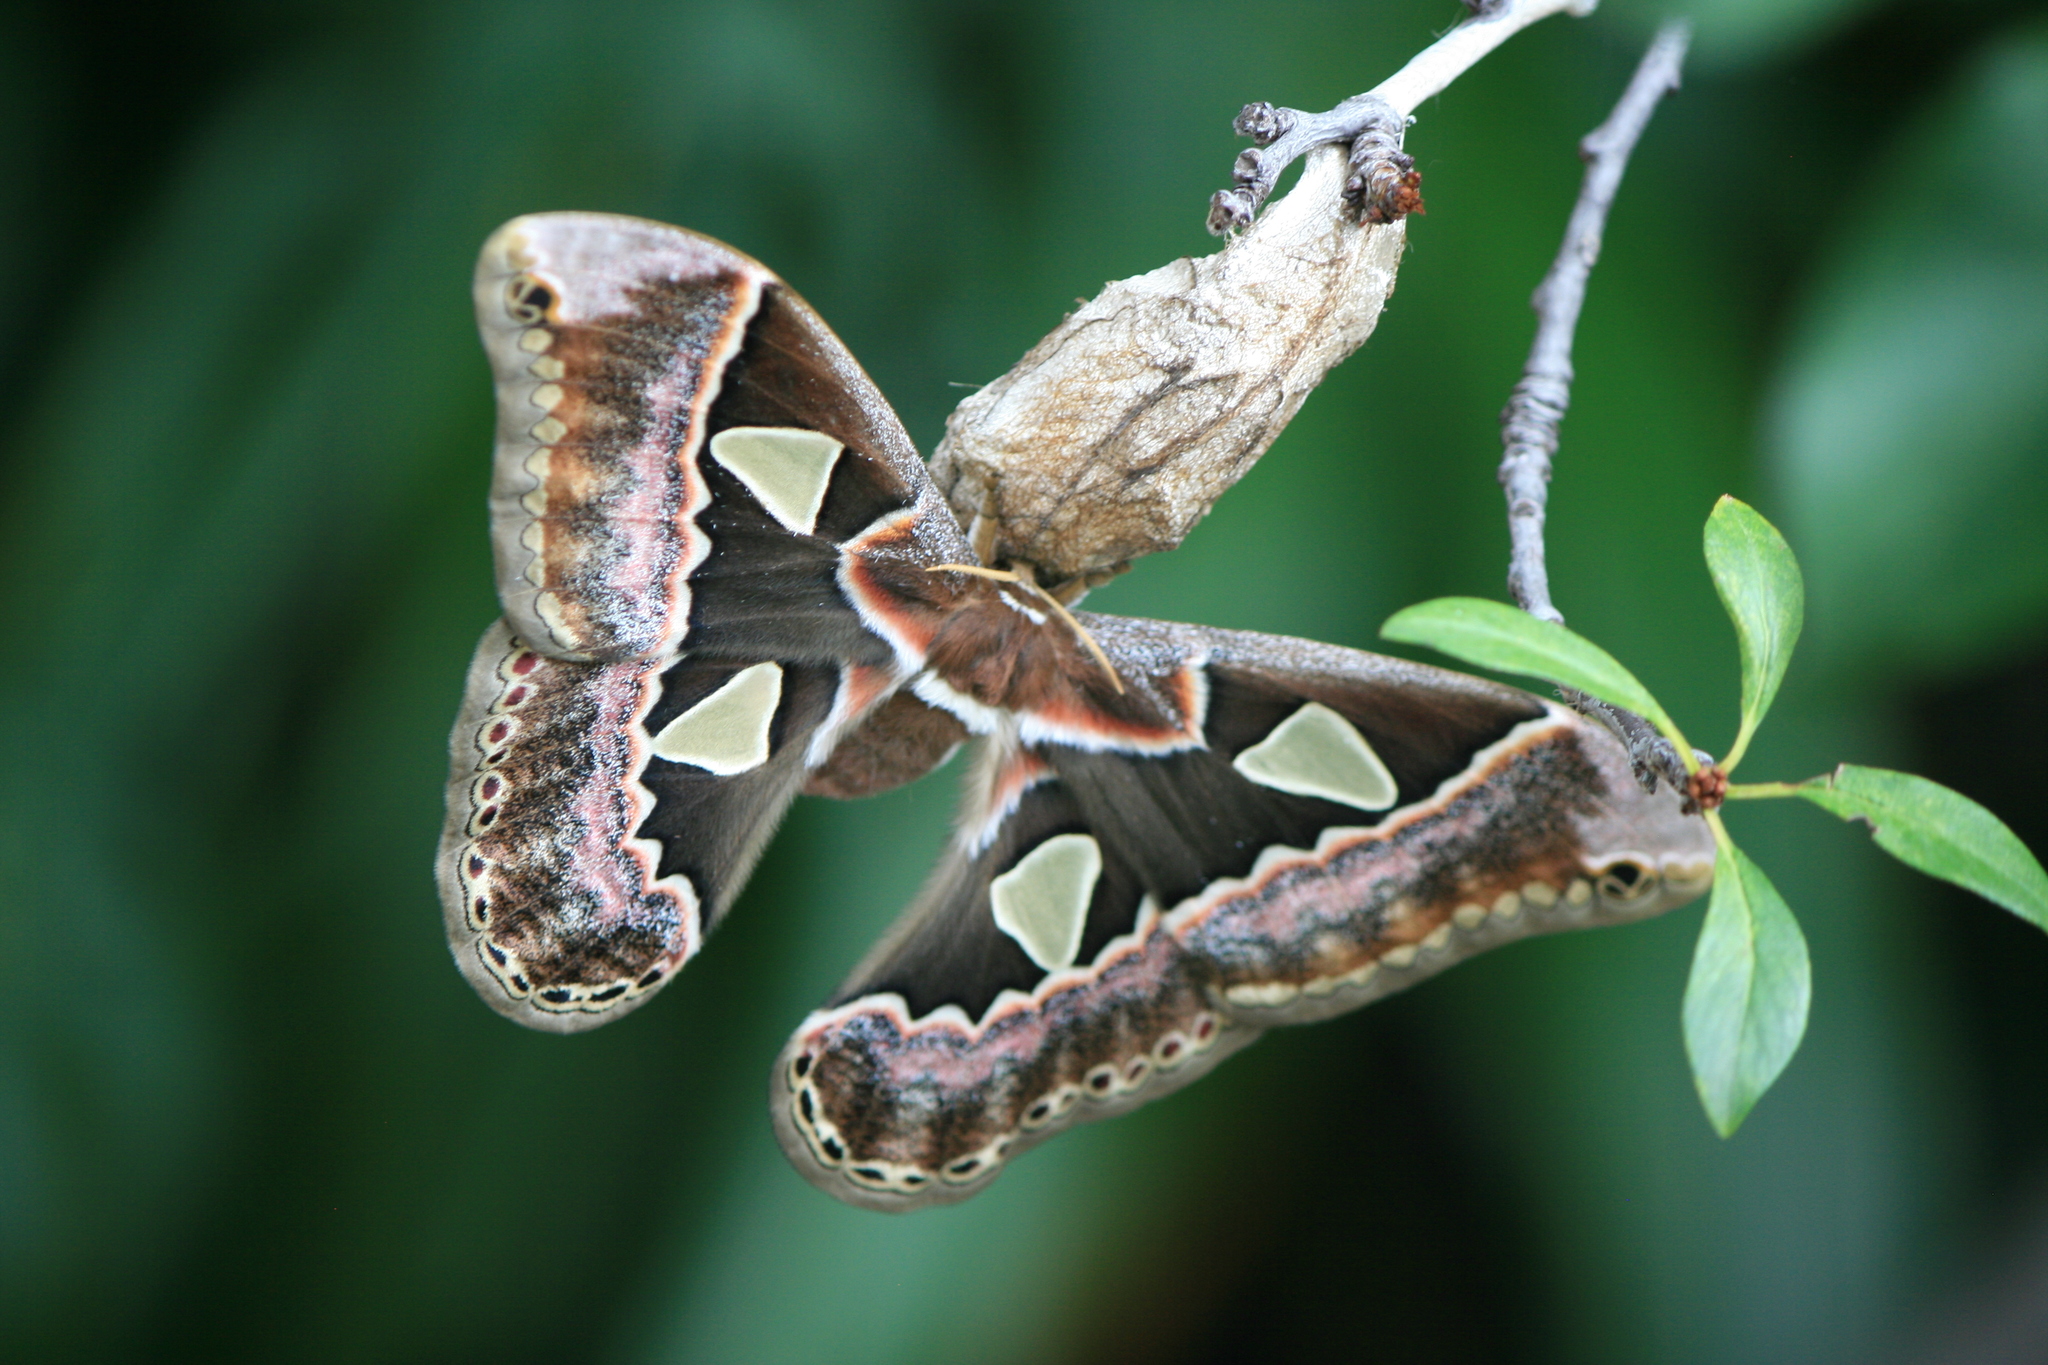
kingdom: Animalia
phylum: Arthropoda
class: Insecta
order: Lepidoptera
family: Saturniidae
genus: Rothschildia
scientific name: Rothschildia lebeau
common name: Lebeau's rothschildia
